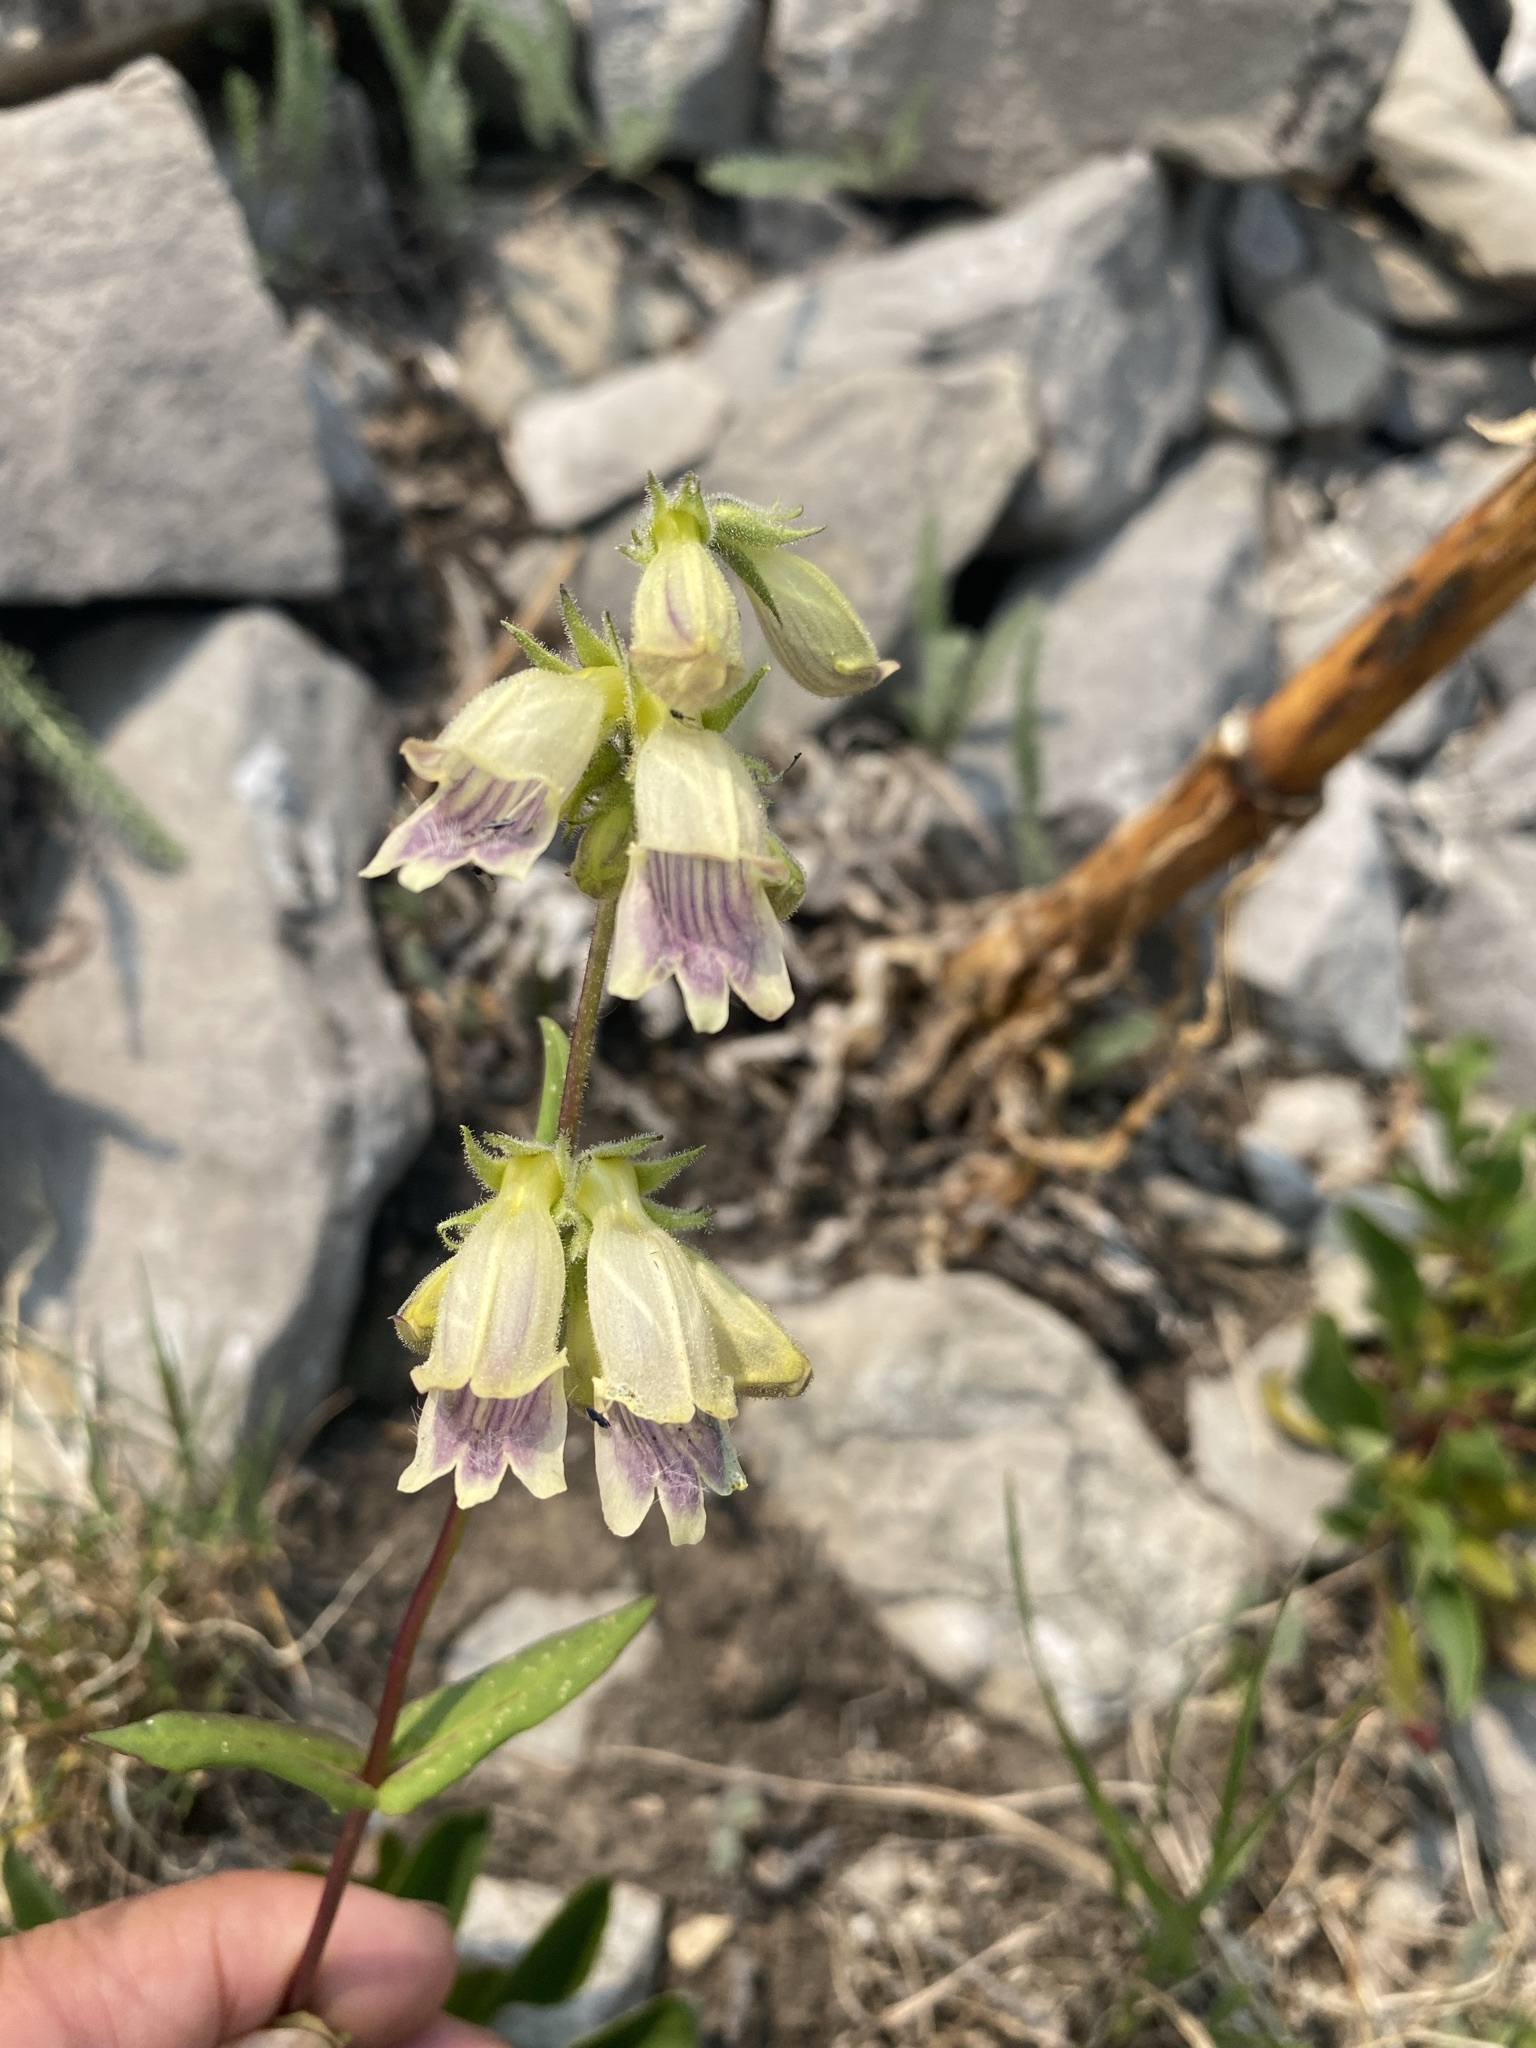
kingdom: Plantae
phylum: Tracheophyta
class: Magnoliopsida
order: Lamiales
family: Plantaginaceae
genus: Penstemon
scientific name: Penstemon whippleanus
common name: Whipple's penstemon
